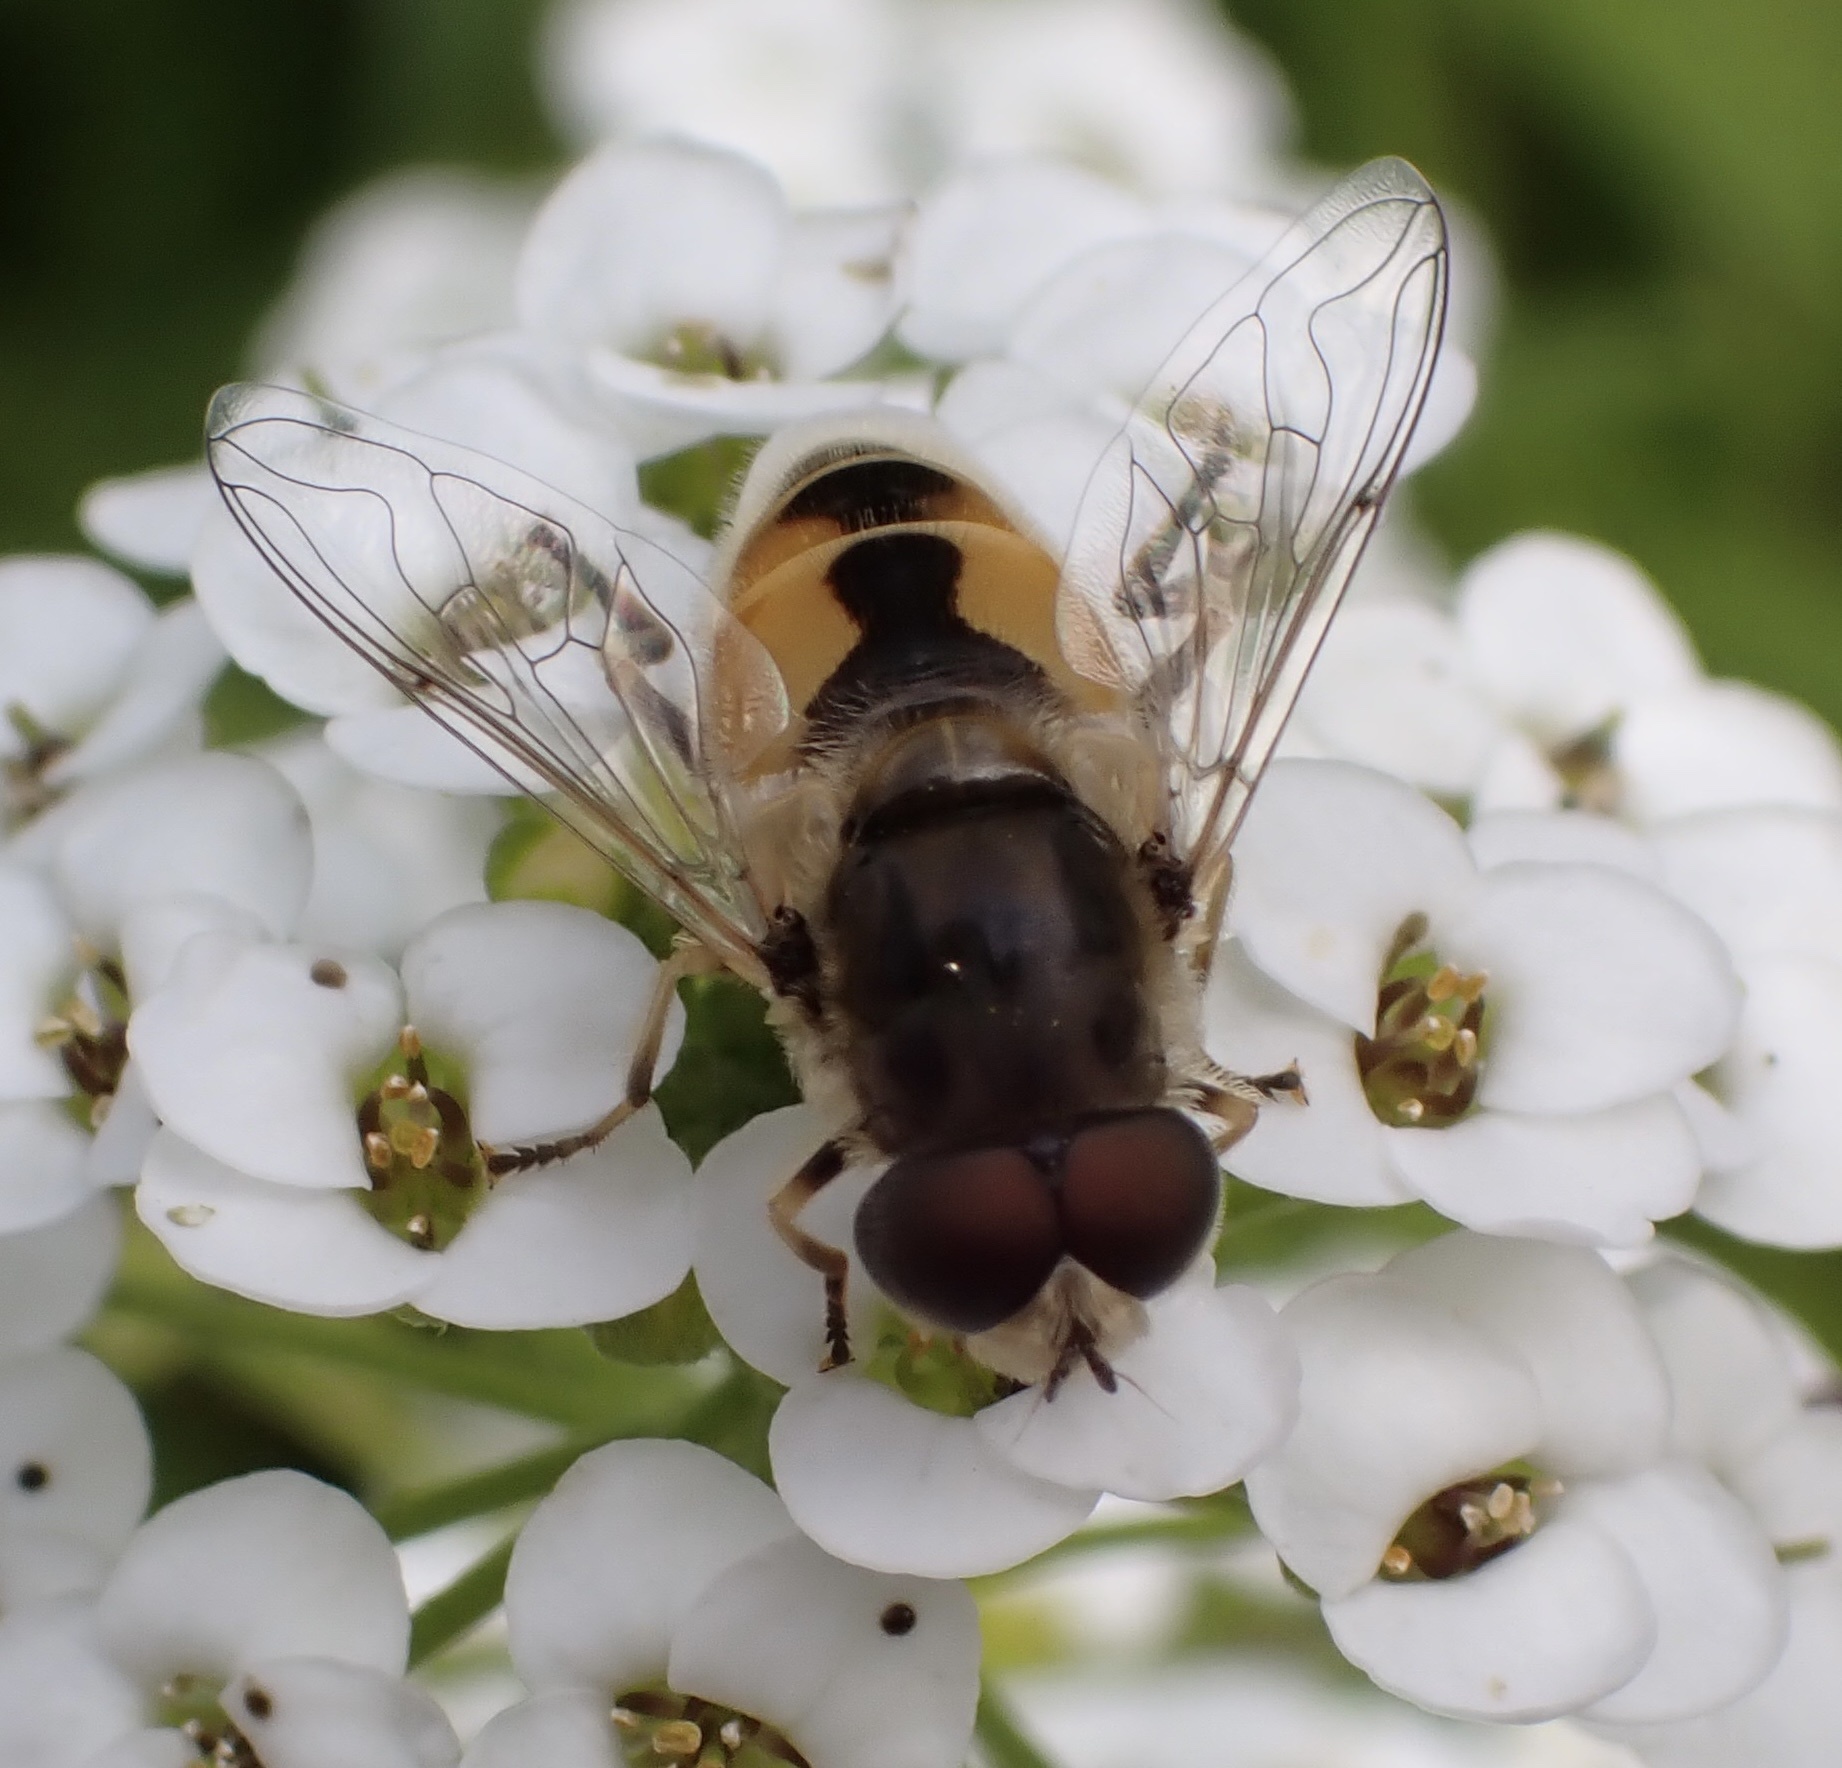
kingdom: Animalia
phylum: Arthropoda
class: Insecta
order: Diptera
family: Syrphidae
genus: Eristalis
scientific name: Eristalis arbustorum
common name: Hover fly
